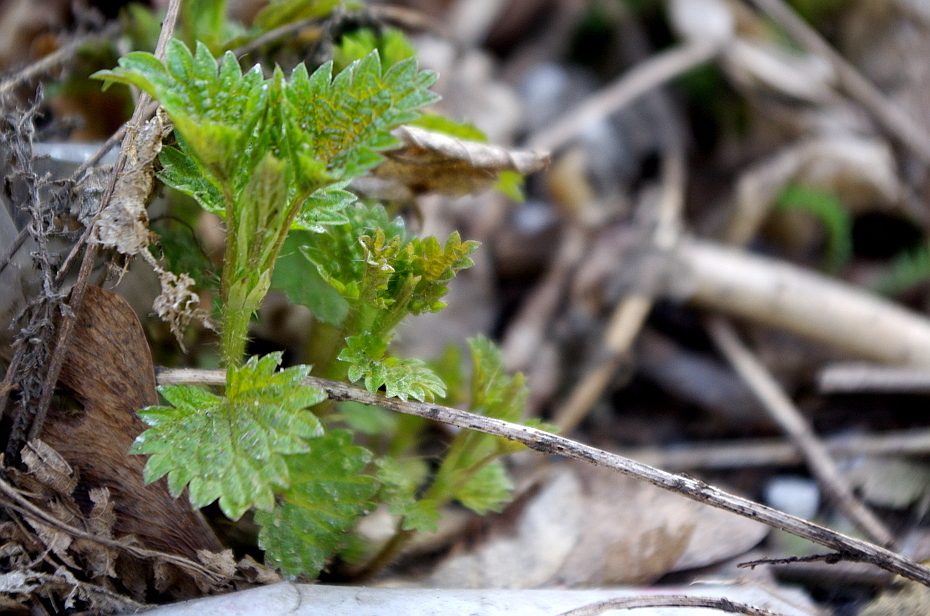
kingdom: Plantae
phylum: Tracheophyta
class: Magnoliopsida
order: Rosales
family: Urticaceae
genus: Urtica
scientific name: Urtica dioica
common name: Common nettle
